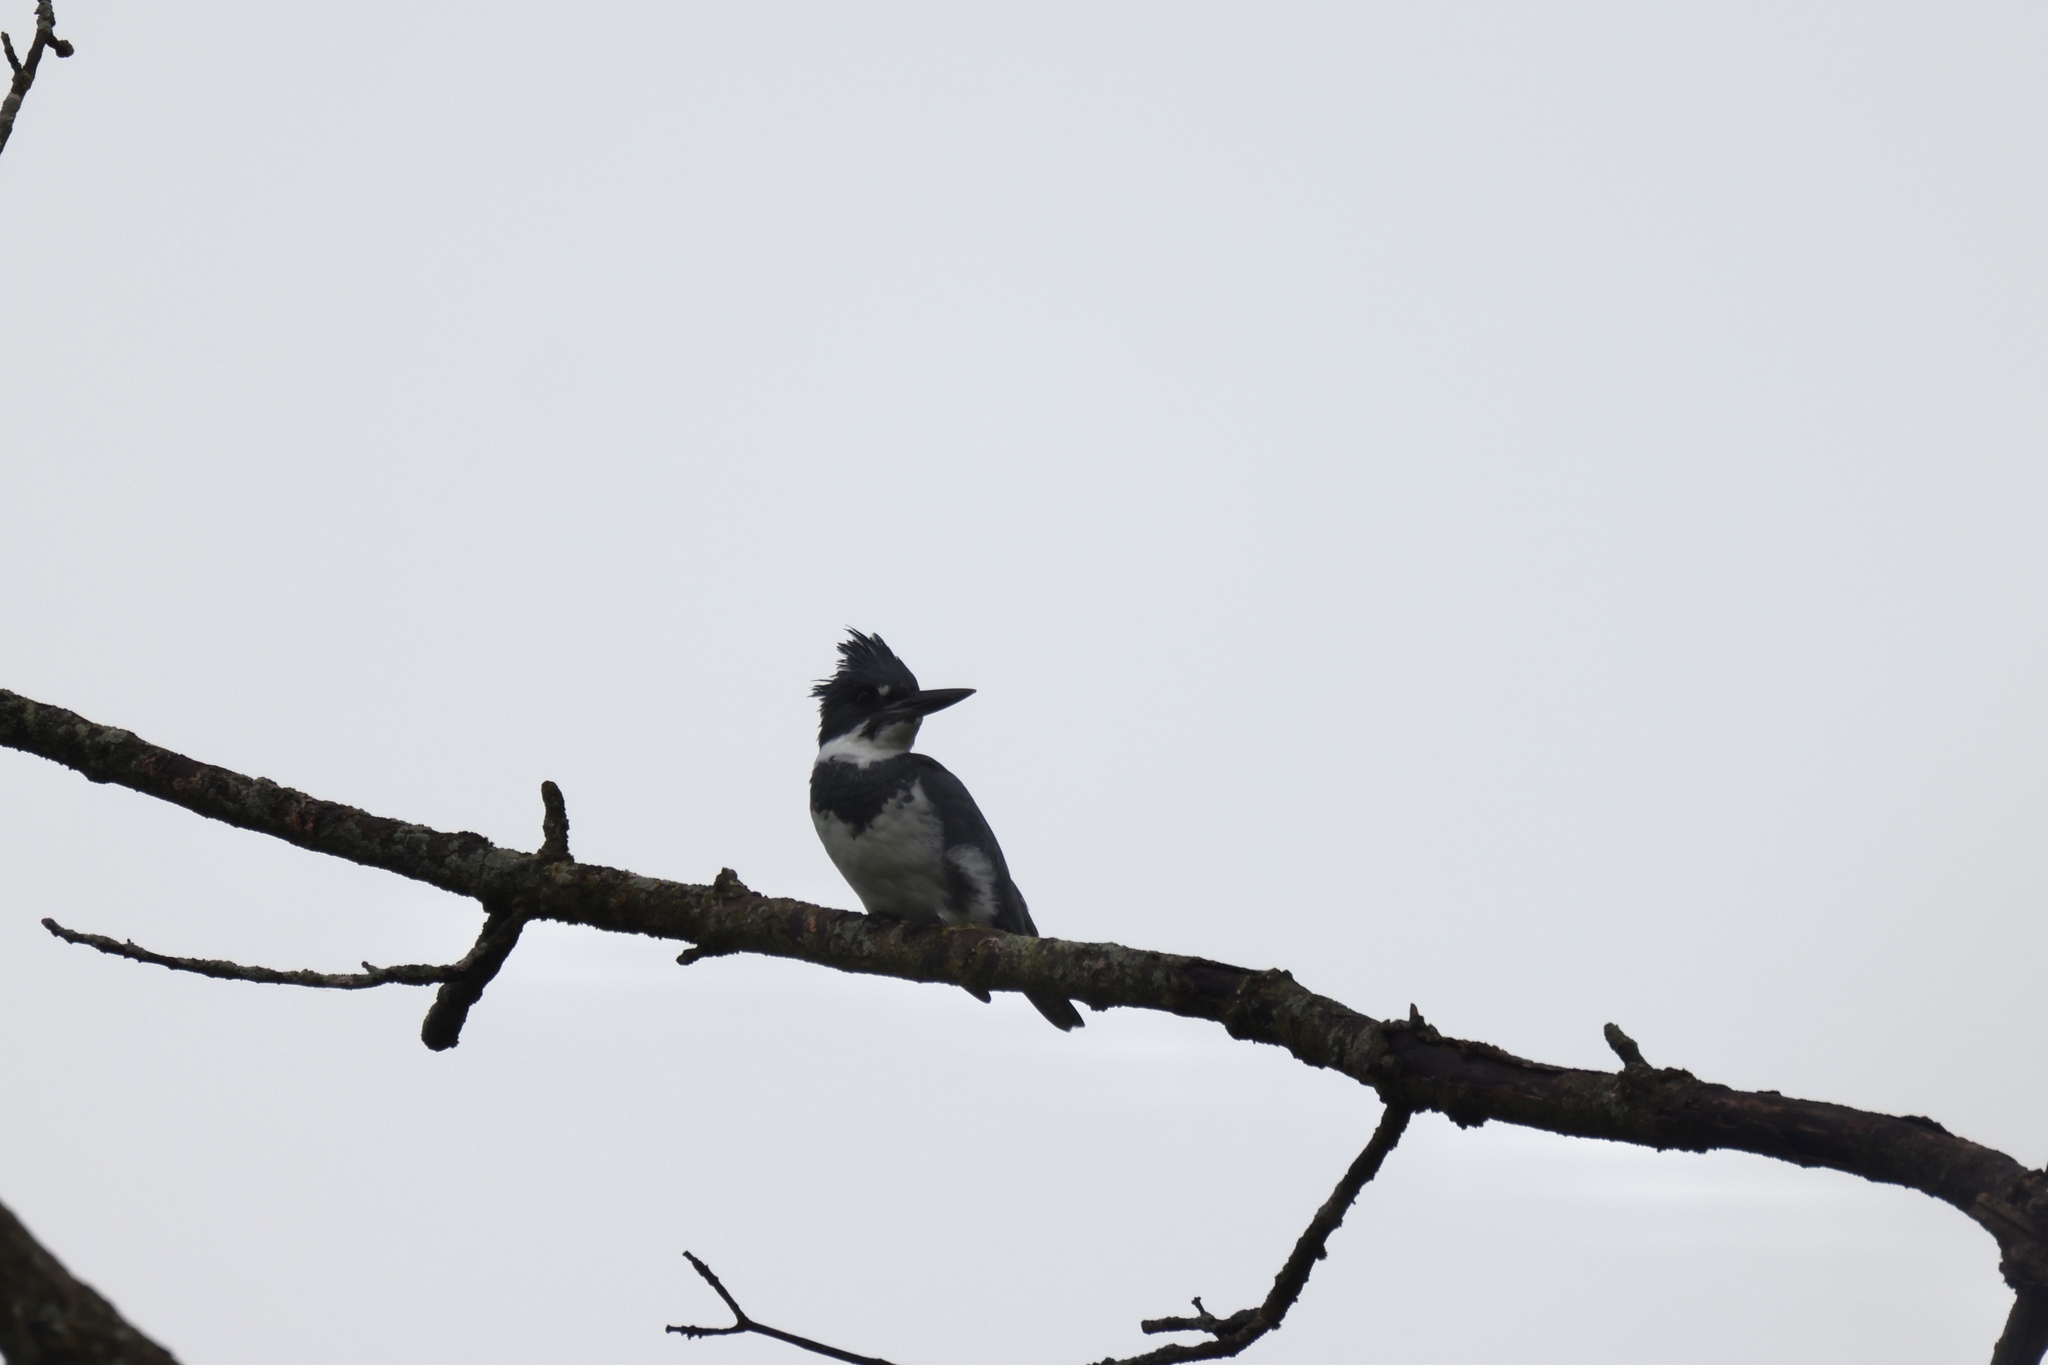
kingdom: Animalia
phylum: Chordata
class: Aves
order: Coraciiformes
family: Alcedinidae
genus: Megaceryle
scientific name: Megaceryle alcyon
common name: Belted kingfisher
